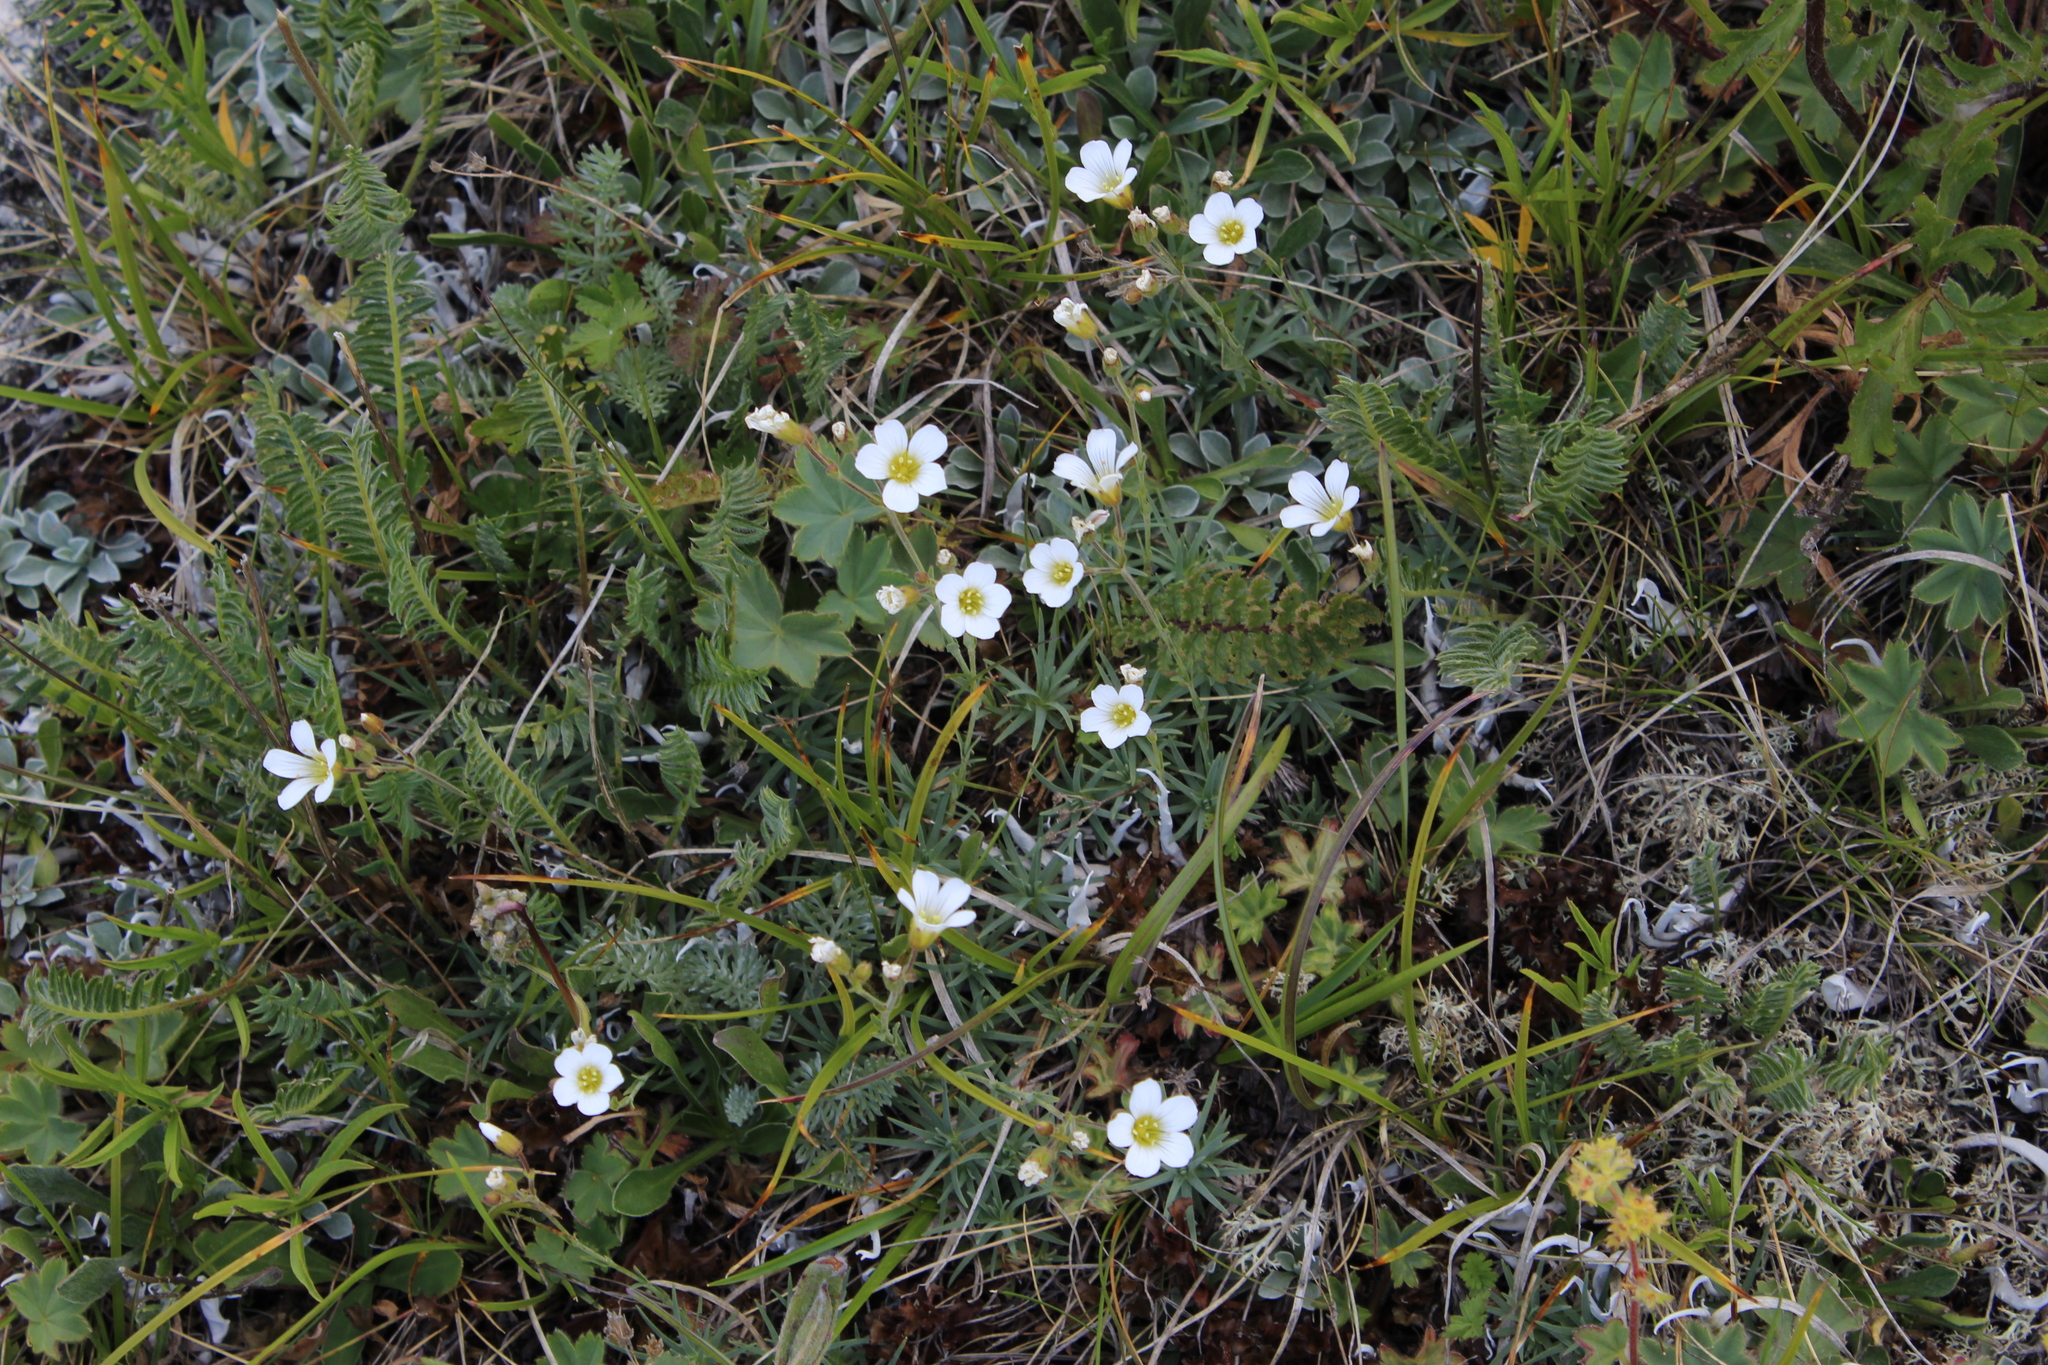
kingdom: Plantae
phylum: Tracheophyta
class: Magnoliopsida
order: Caryophyllales
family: Caryophyllaceae
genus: Cherleria
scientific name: Cherleria circassica
